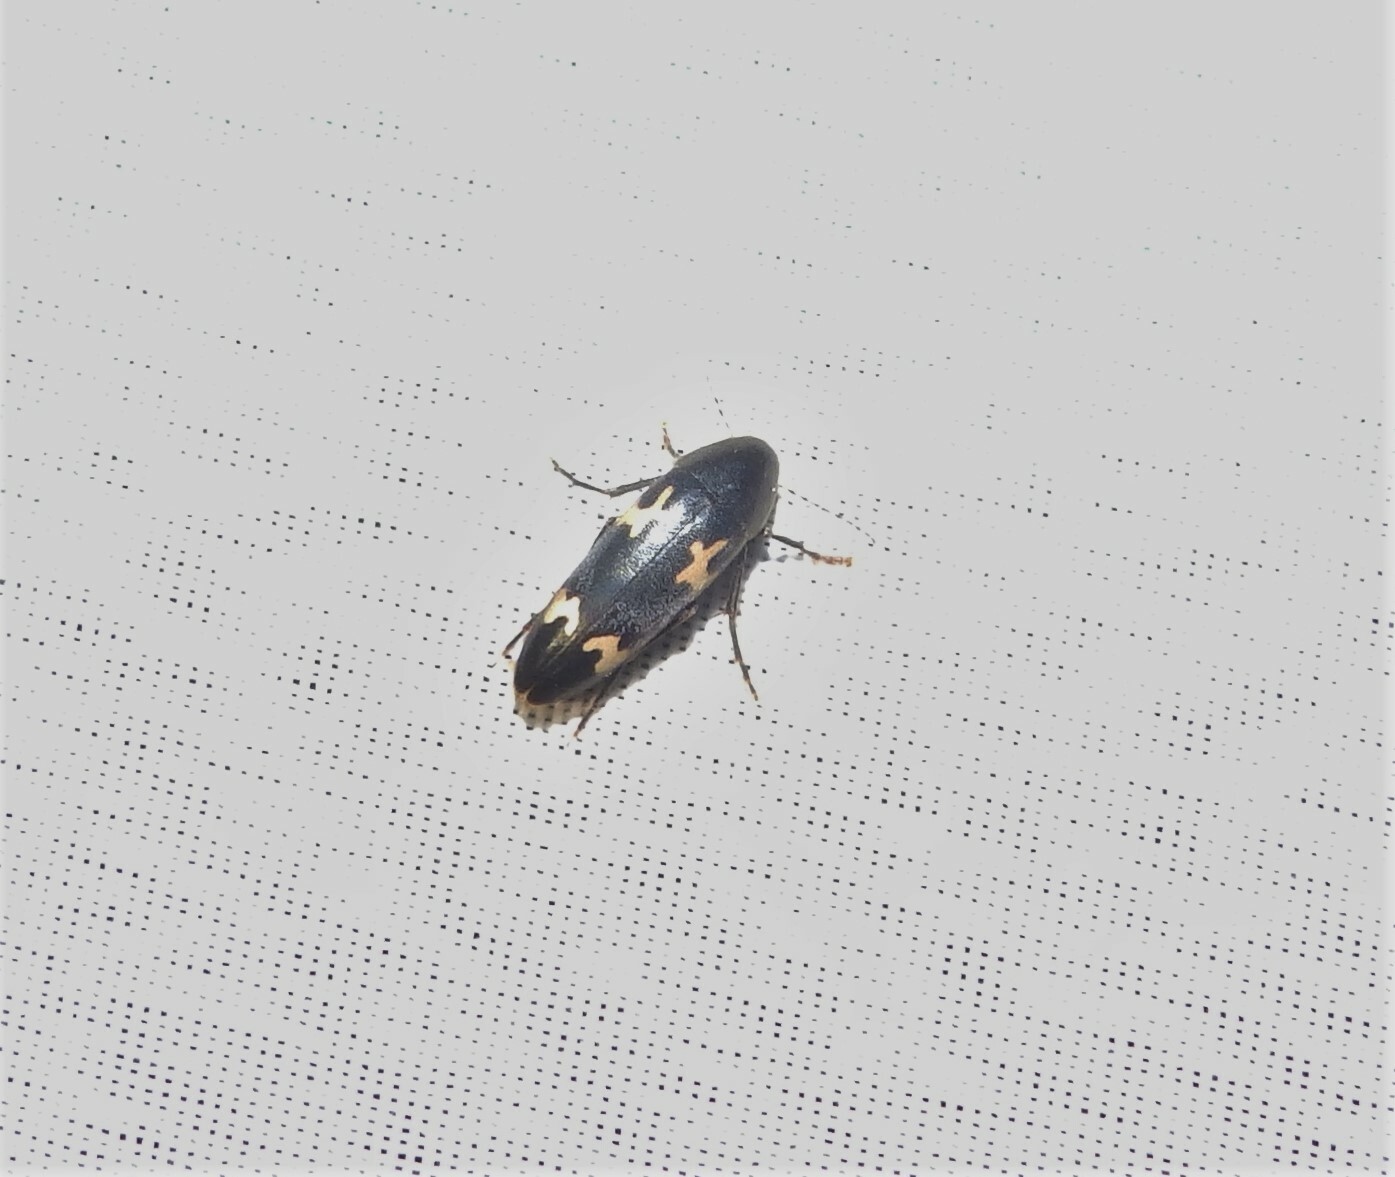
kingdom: Animalia
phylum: Arthropoda
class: Insecta
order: Coleoptera
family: Melandryidae
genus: Dircaea
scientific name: Dircaea liturata
